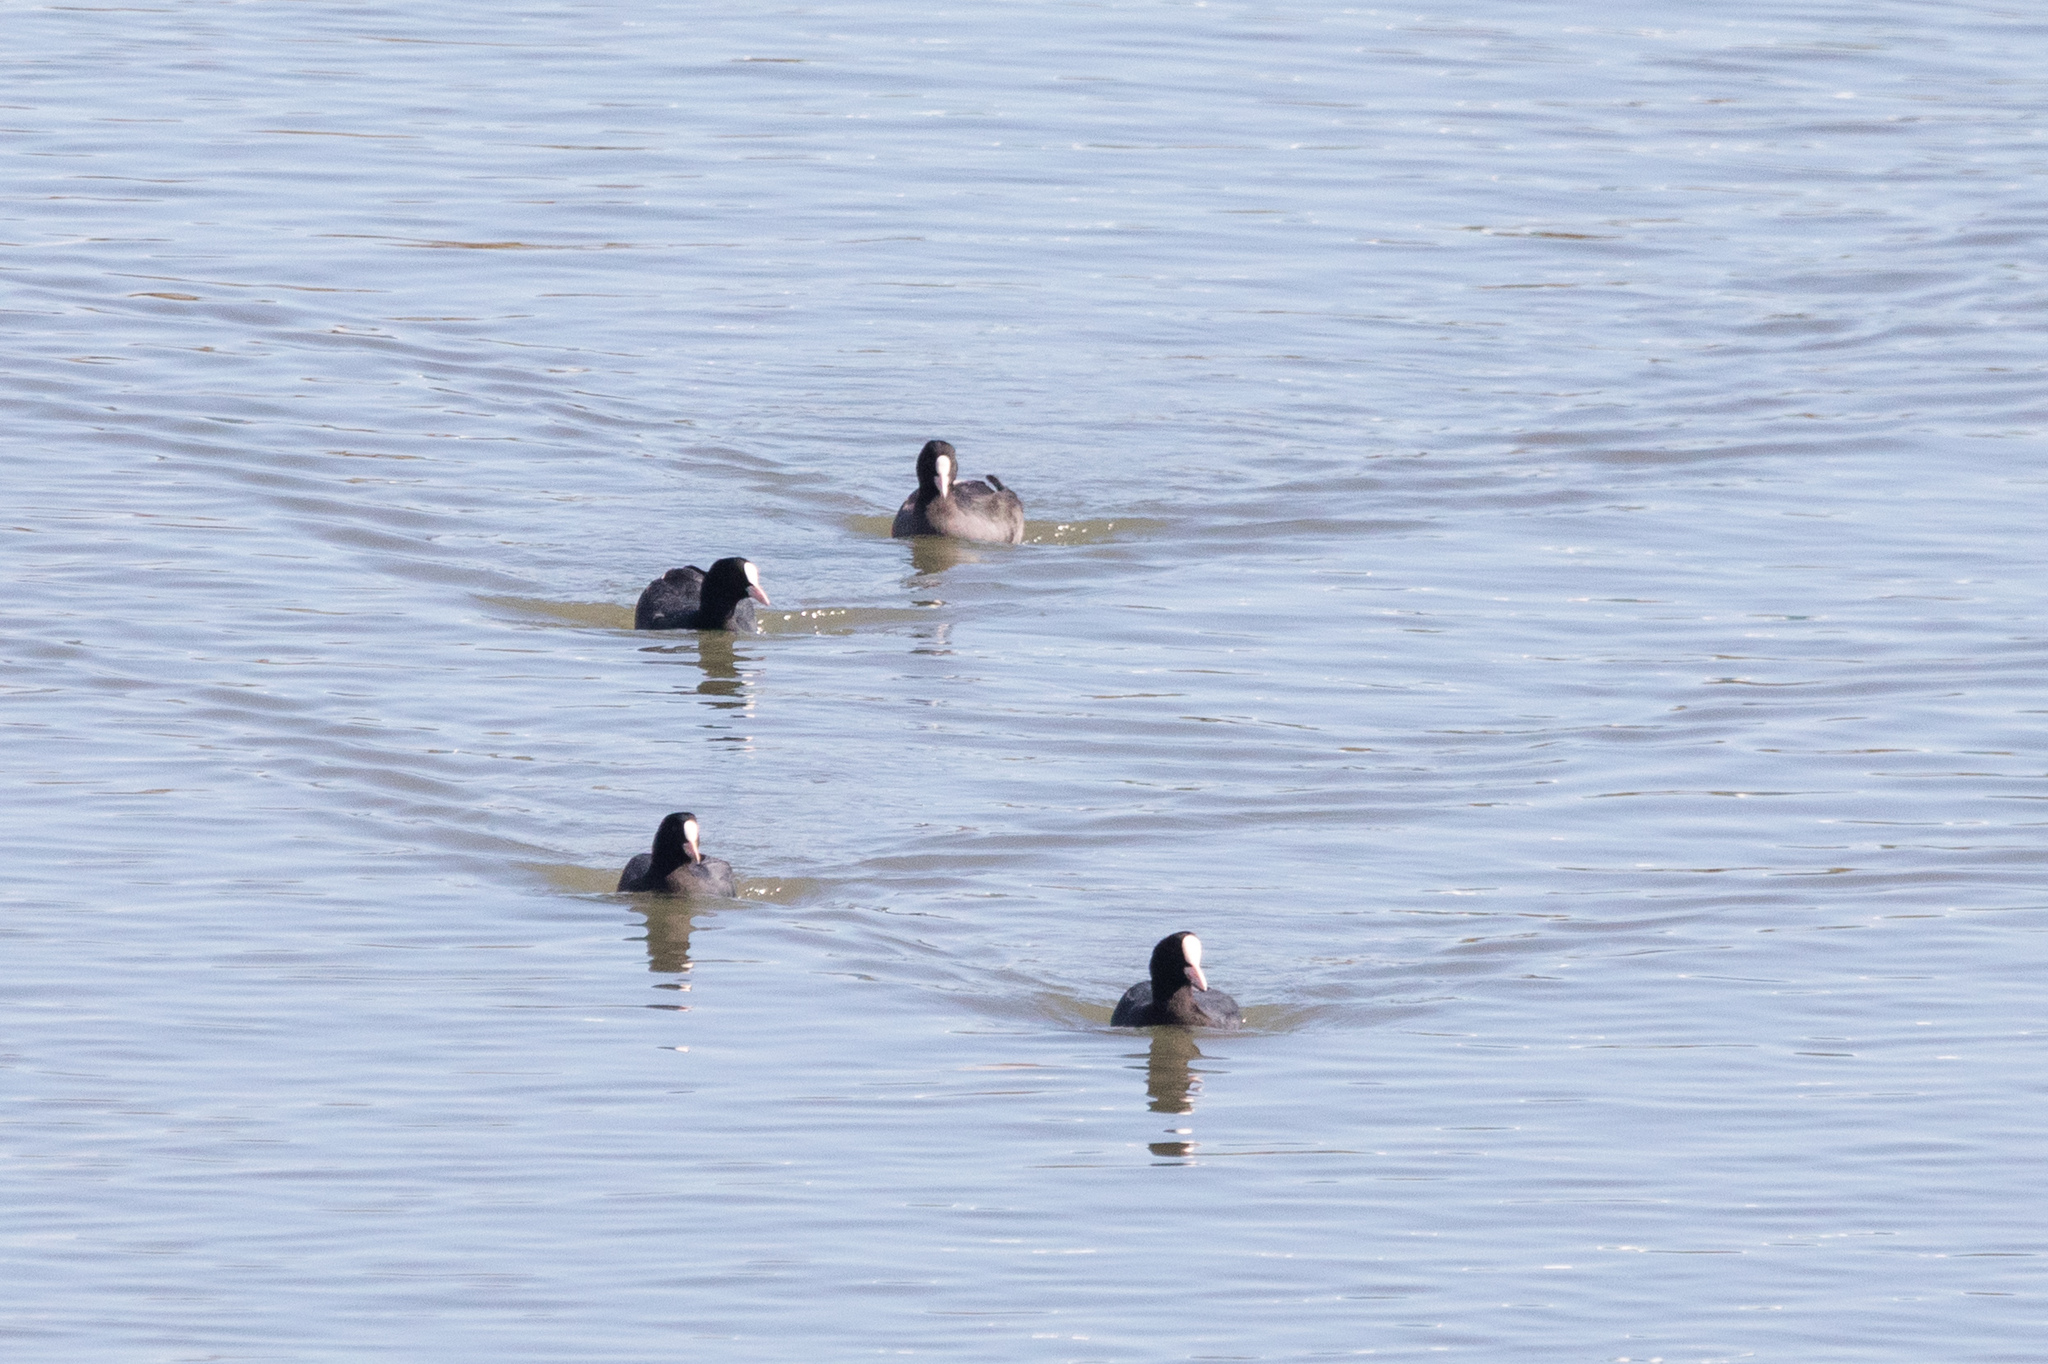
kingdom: Animalia
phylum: Chordata
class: Aves
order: Gruiformes
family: Rallidae
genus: Fulica
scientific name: Fulica atra
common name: Eurasian coot
